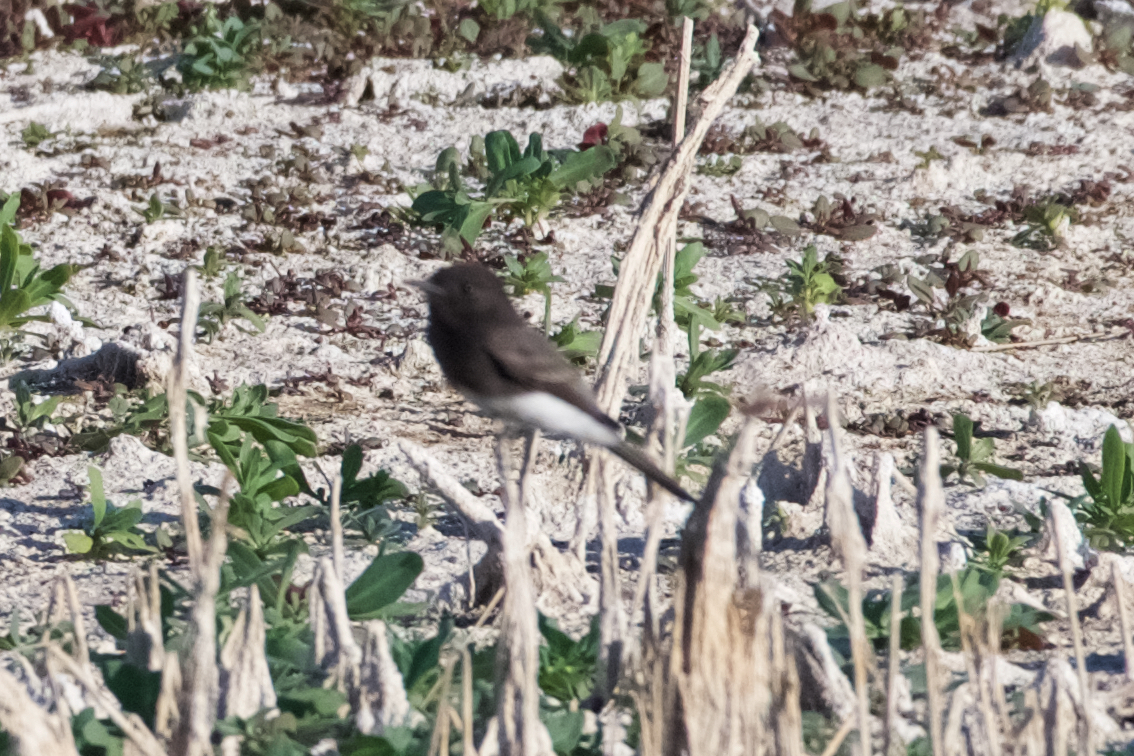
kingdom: Animalia
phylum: Chordata
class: Aves
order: Passeriformes
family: Tyrannidae
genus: Sayornis
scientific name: Sayornis nigricans
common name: Black phoebe
